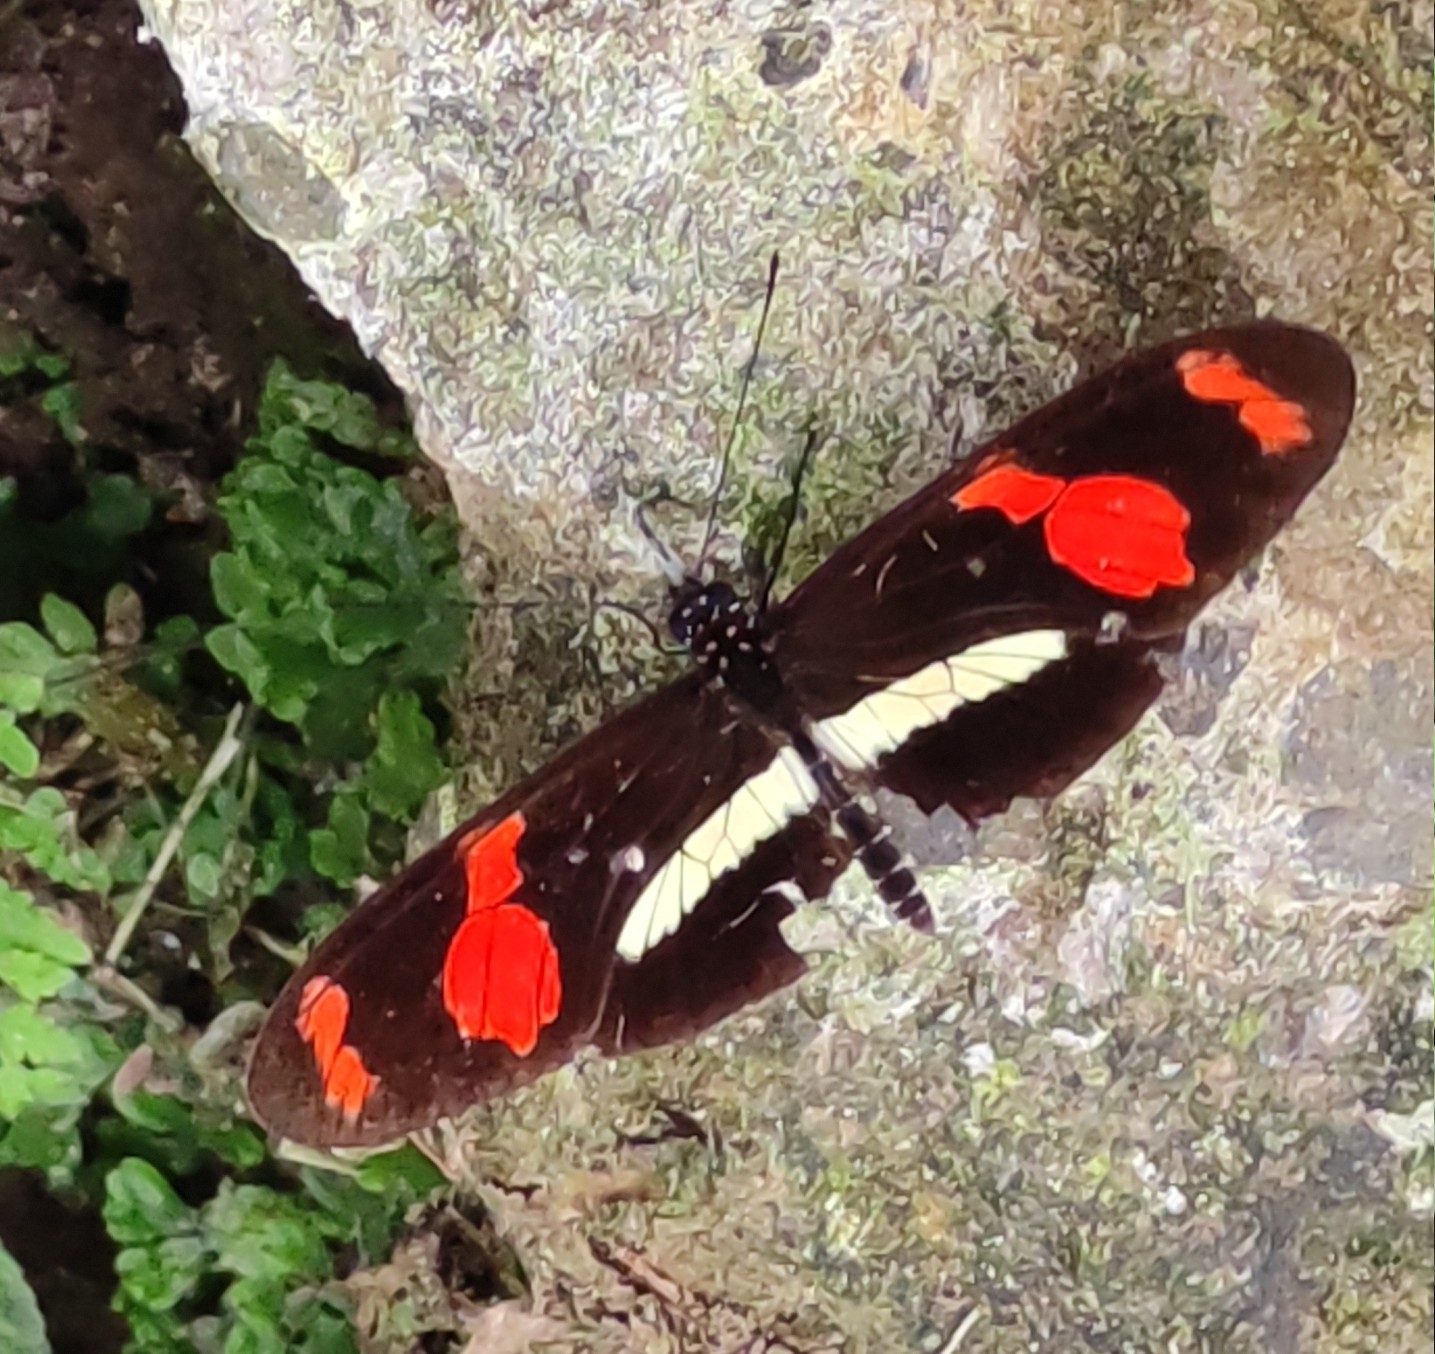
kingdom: Animalia
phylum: Arthropoda
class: Insecta
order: Lepidoptera
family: Nymphalidae
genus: Heliconius
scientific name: Heliconius telesiphe
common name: Telesiphe longwing
